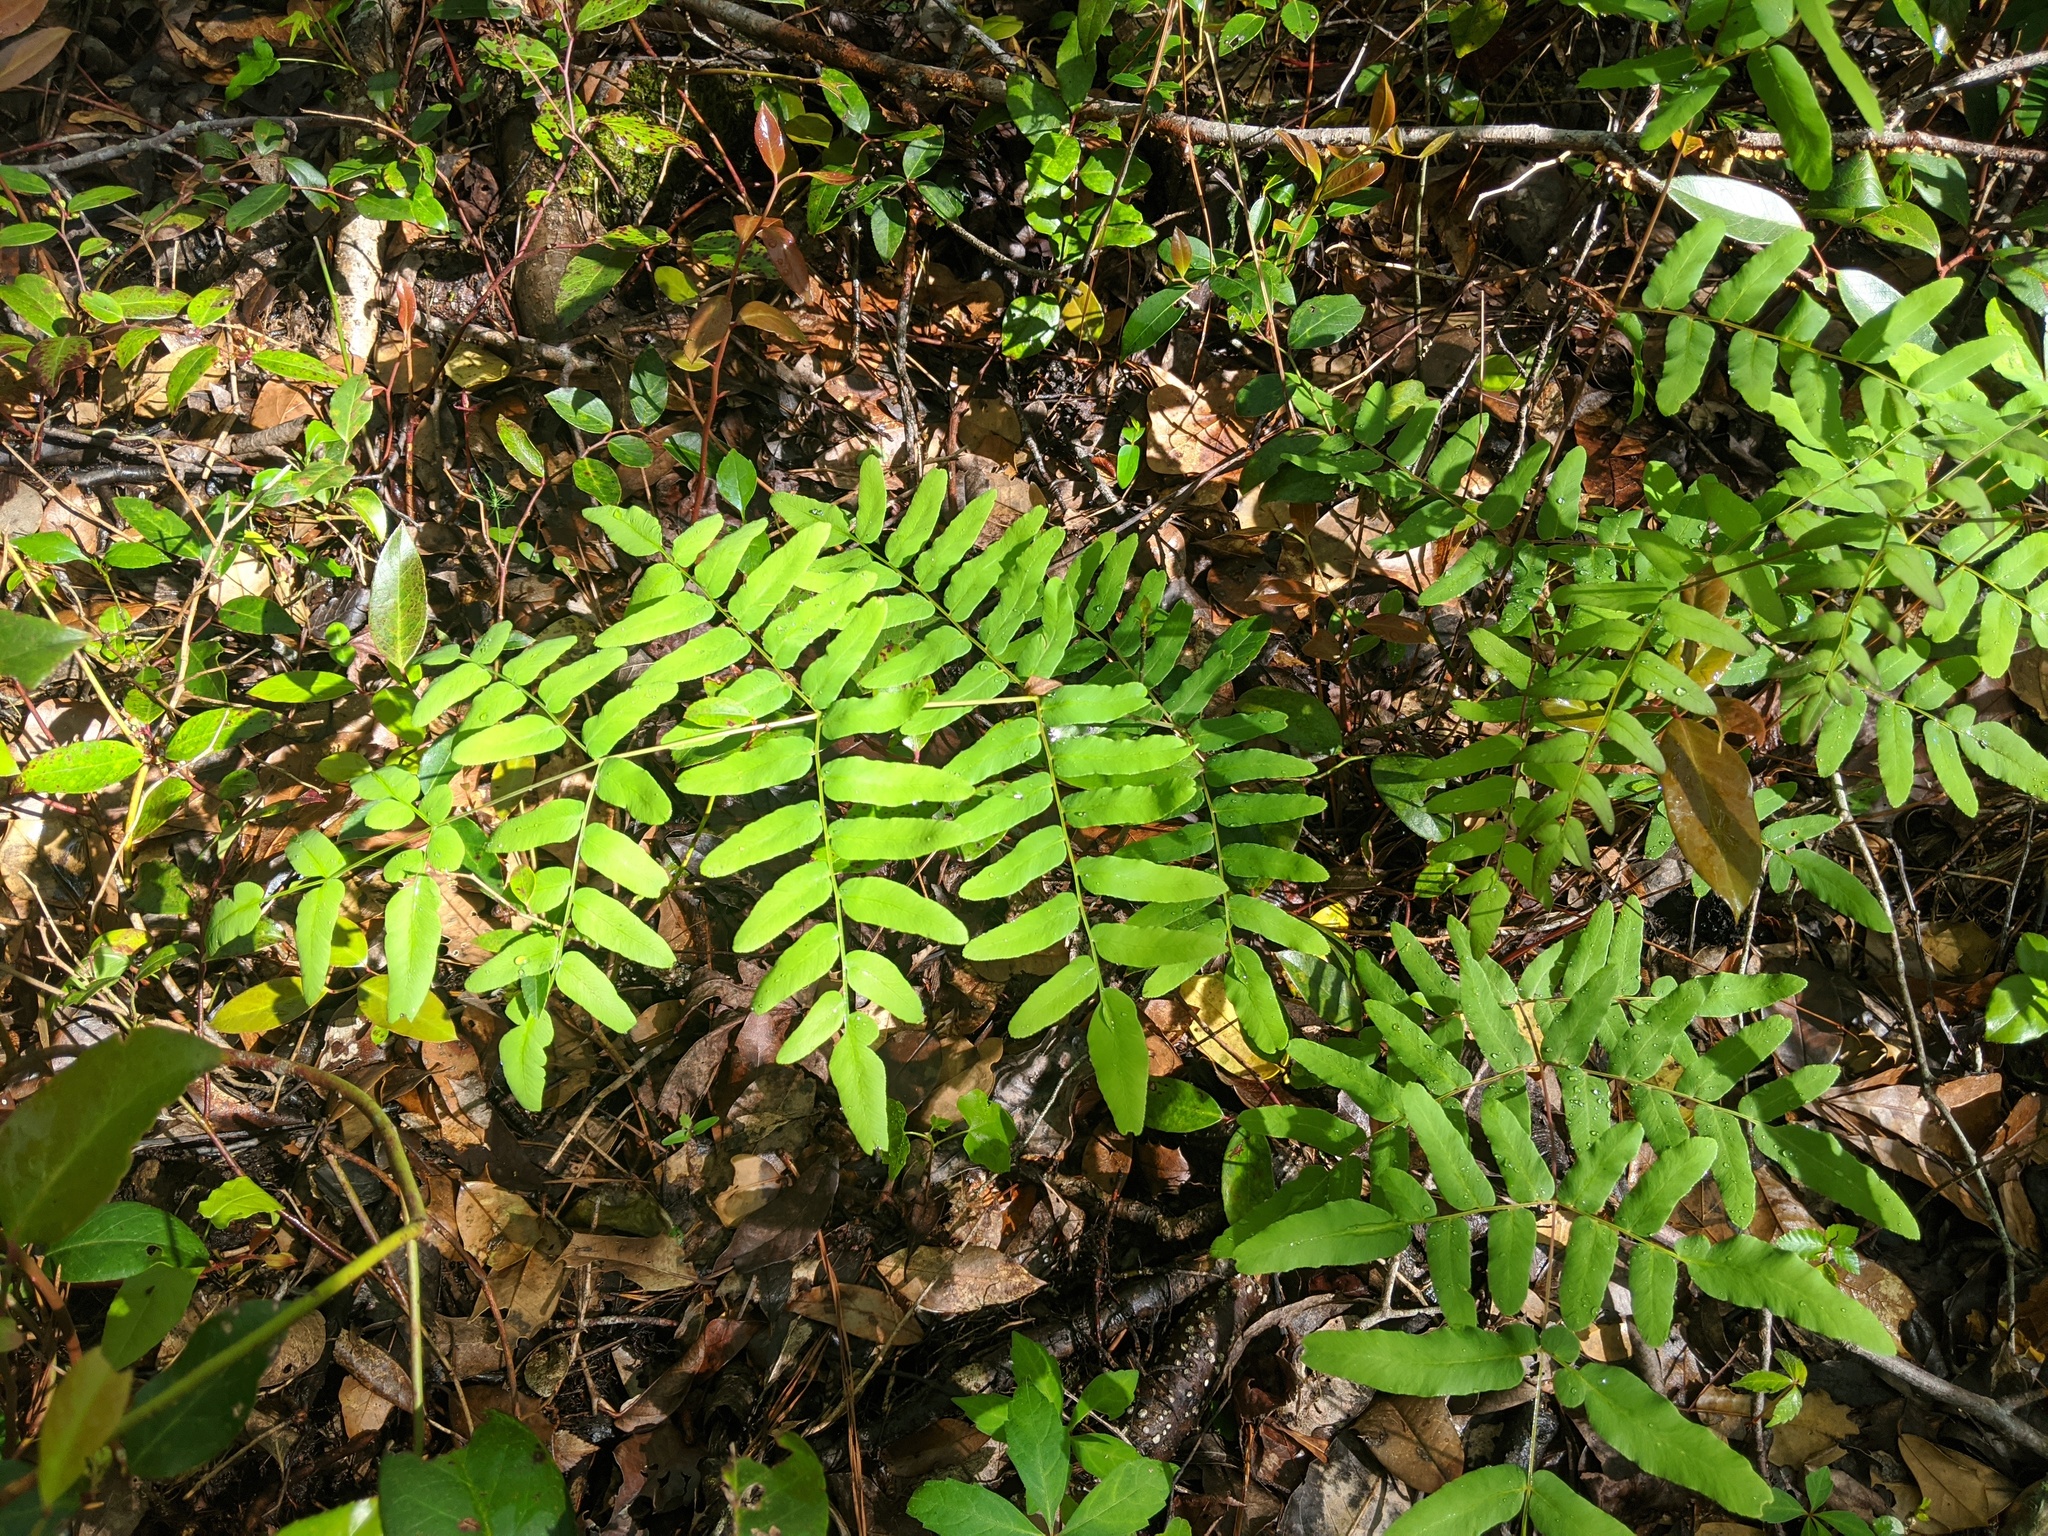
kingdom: Plantae
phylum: Tracheophyta
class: Polypodiopsida
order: Osmundales
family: Osmundaceae
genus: Osmunda
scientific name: Osmunda spectabilis
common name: American royal fern
